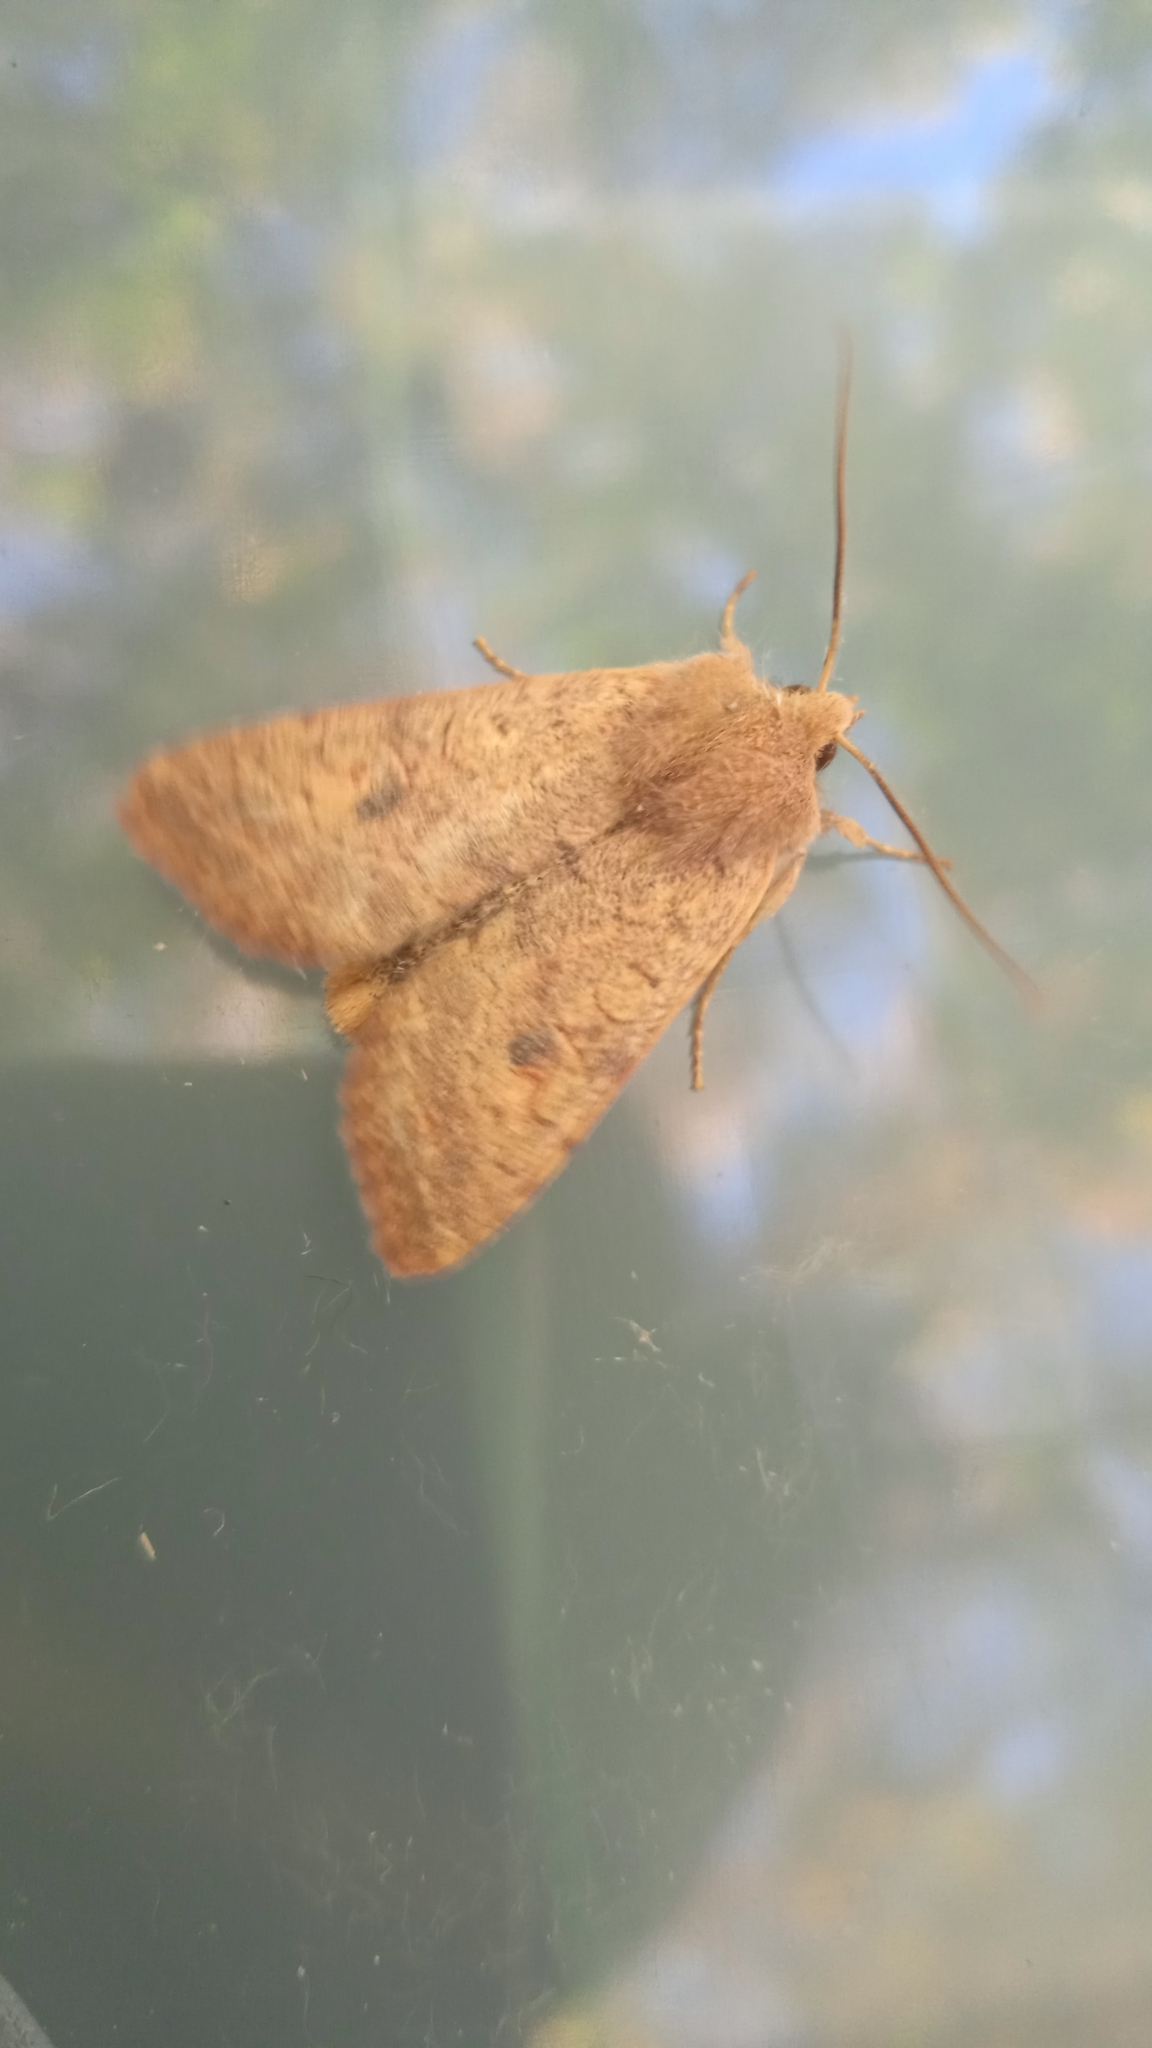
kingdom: Animalia
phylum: Arthropoda
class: Insecta
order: Lepidoptera
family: Noctuidae
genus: Sunira
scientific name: Sunira circellaris
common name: Brick
